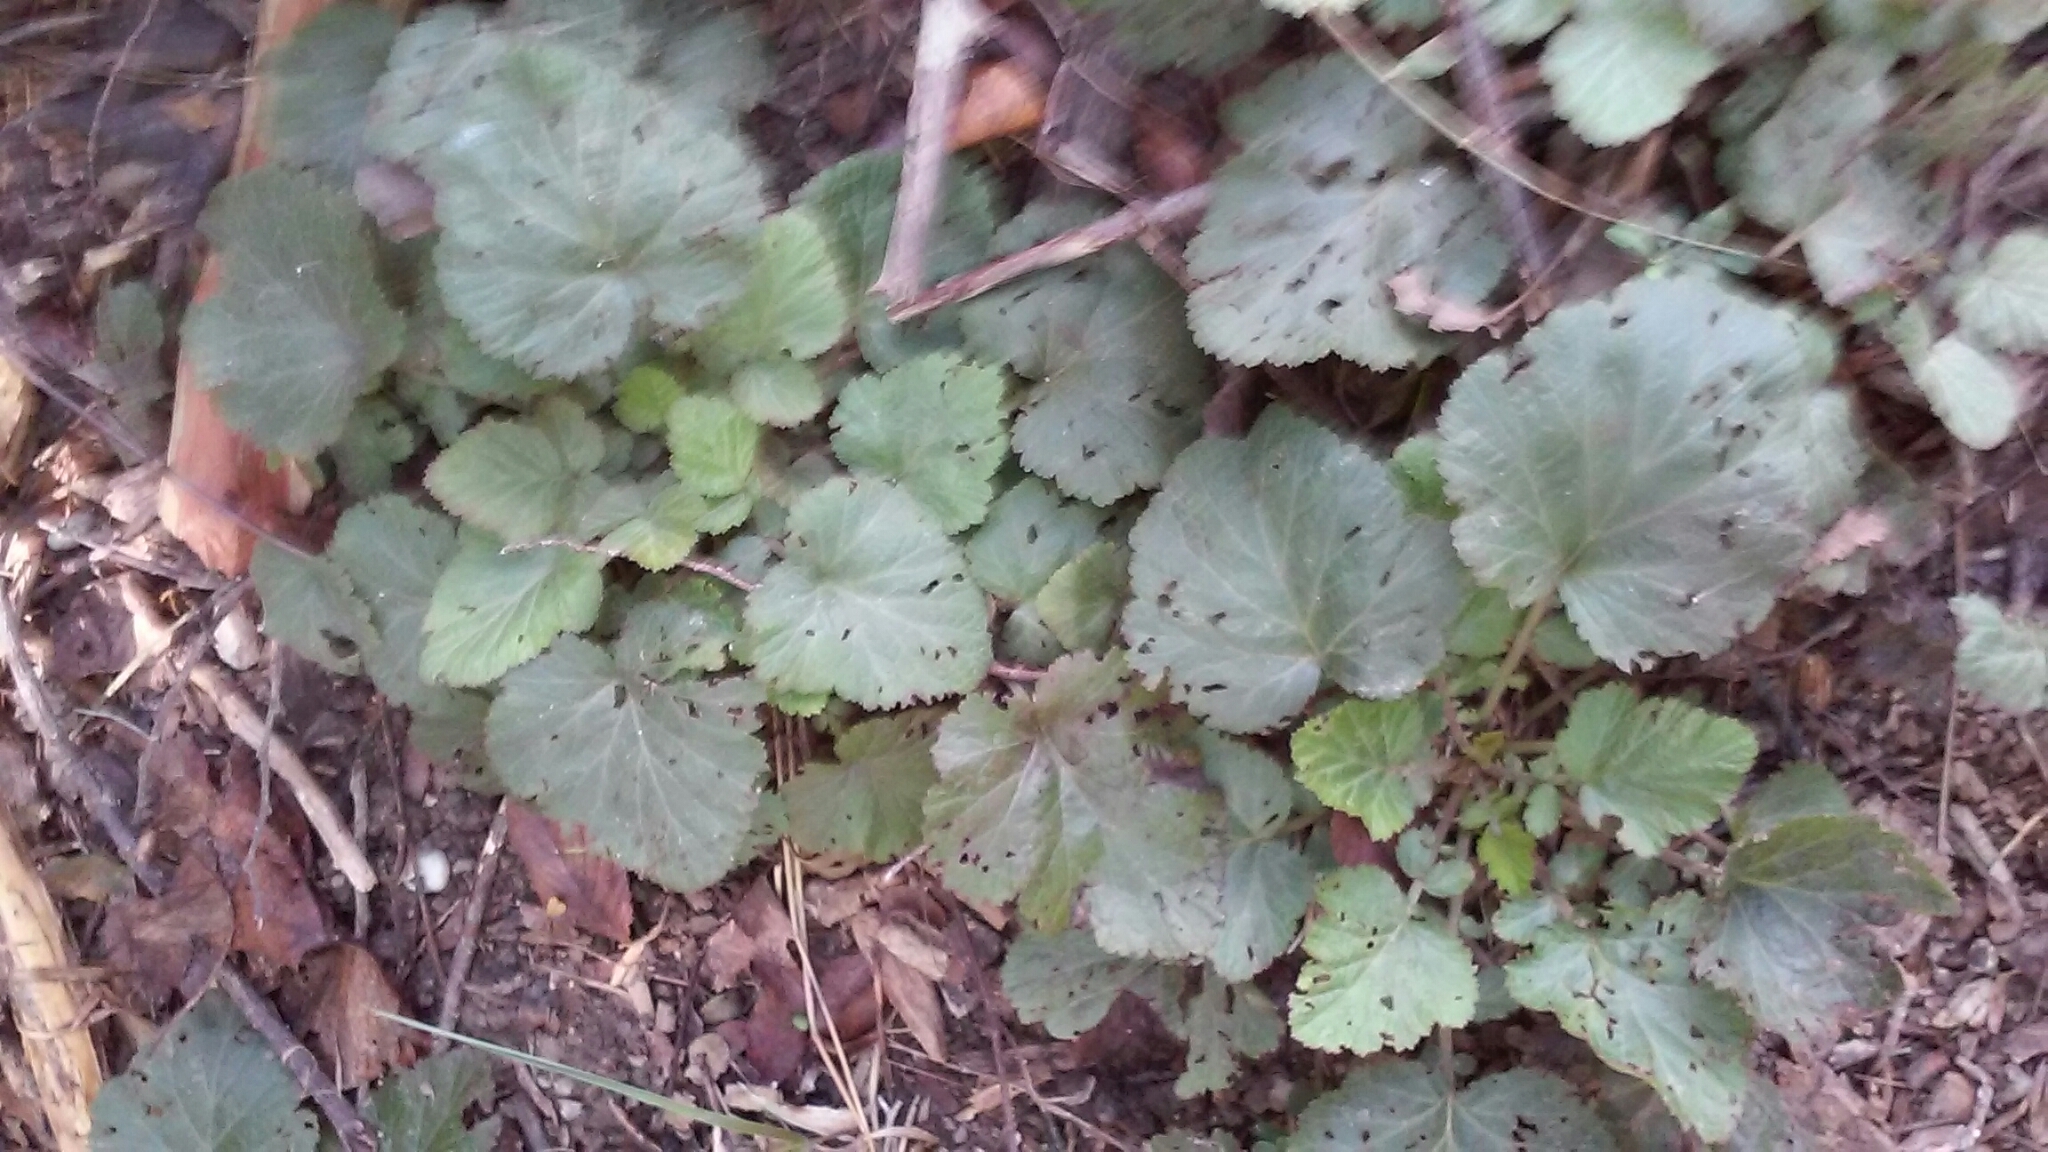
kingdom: Plantae
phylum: Tracheophyta
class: Magnoliopsida
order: Rosales
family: Rosaceae
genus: Geum
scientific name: Geum canadense
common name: White avens
